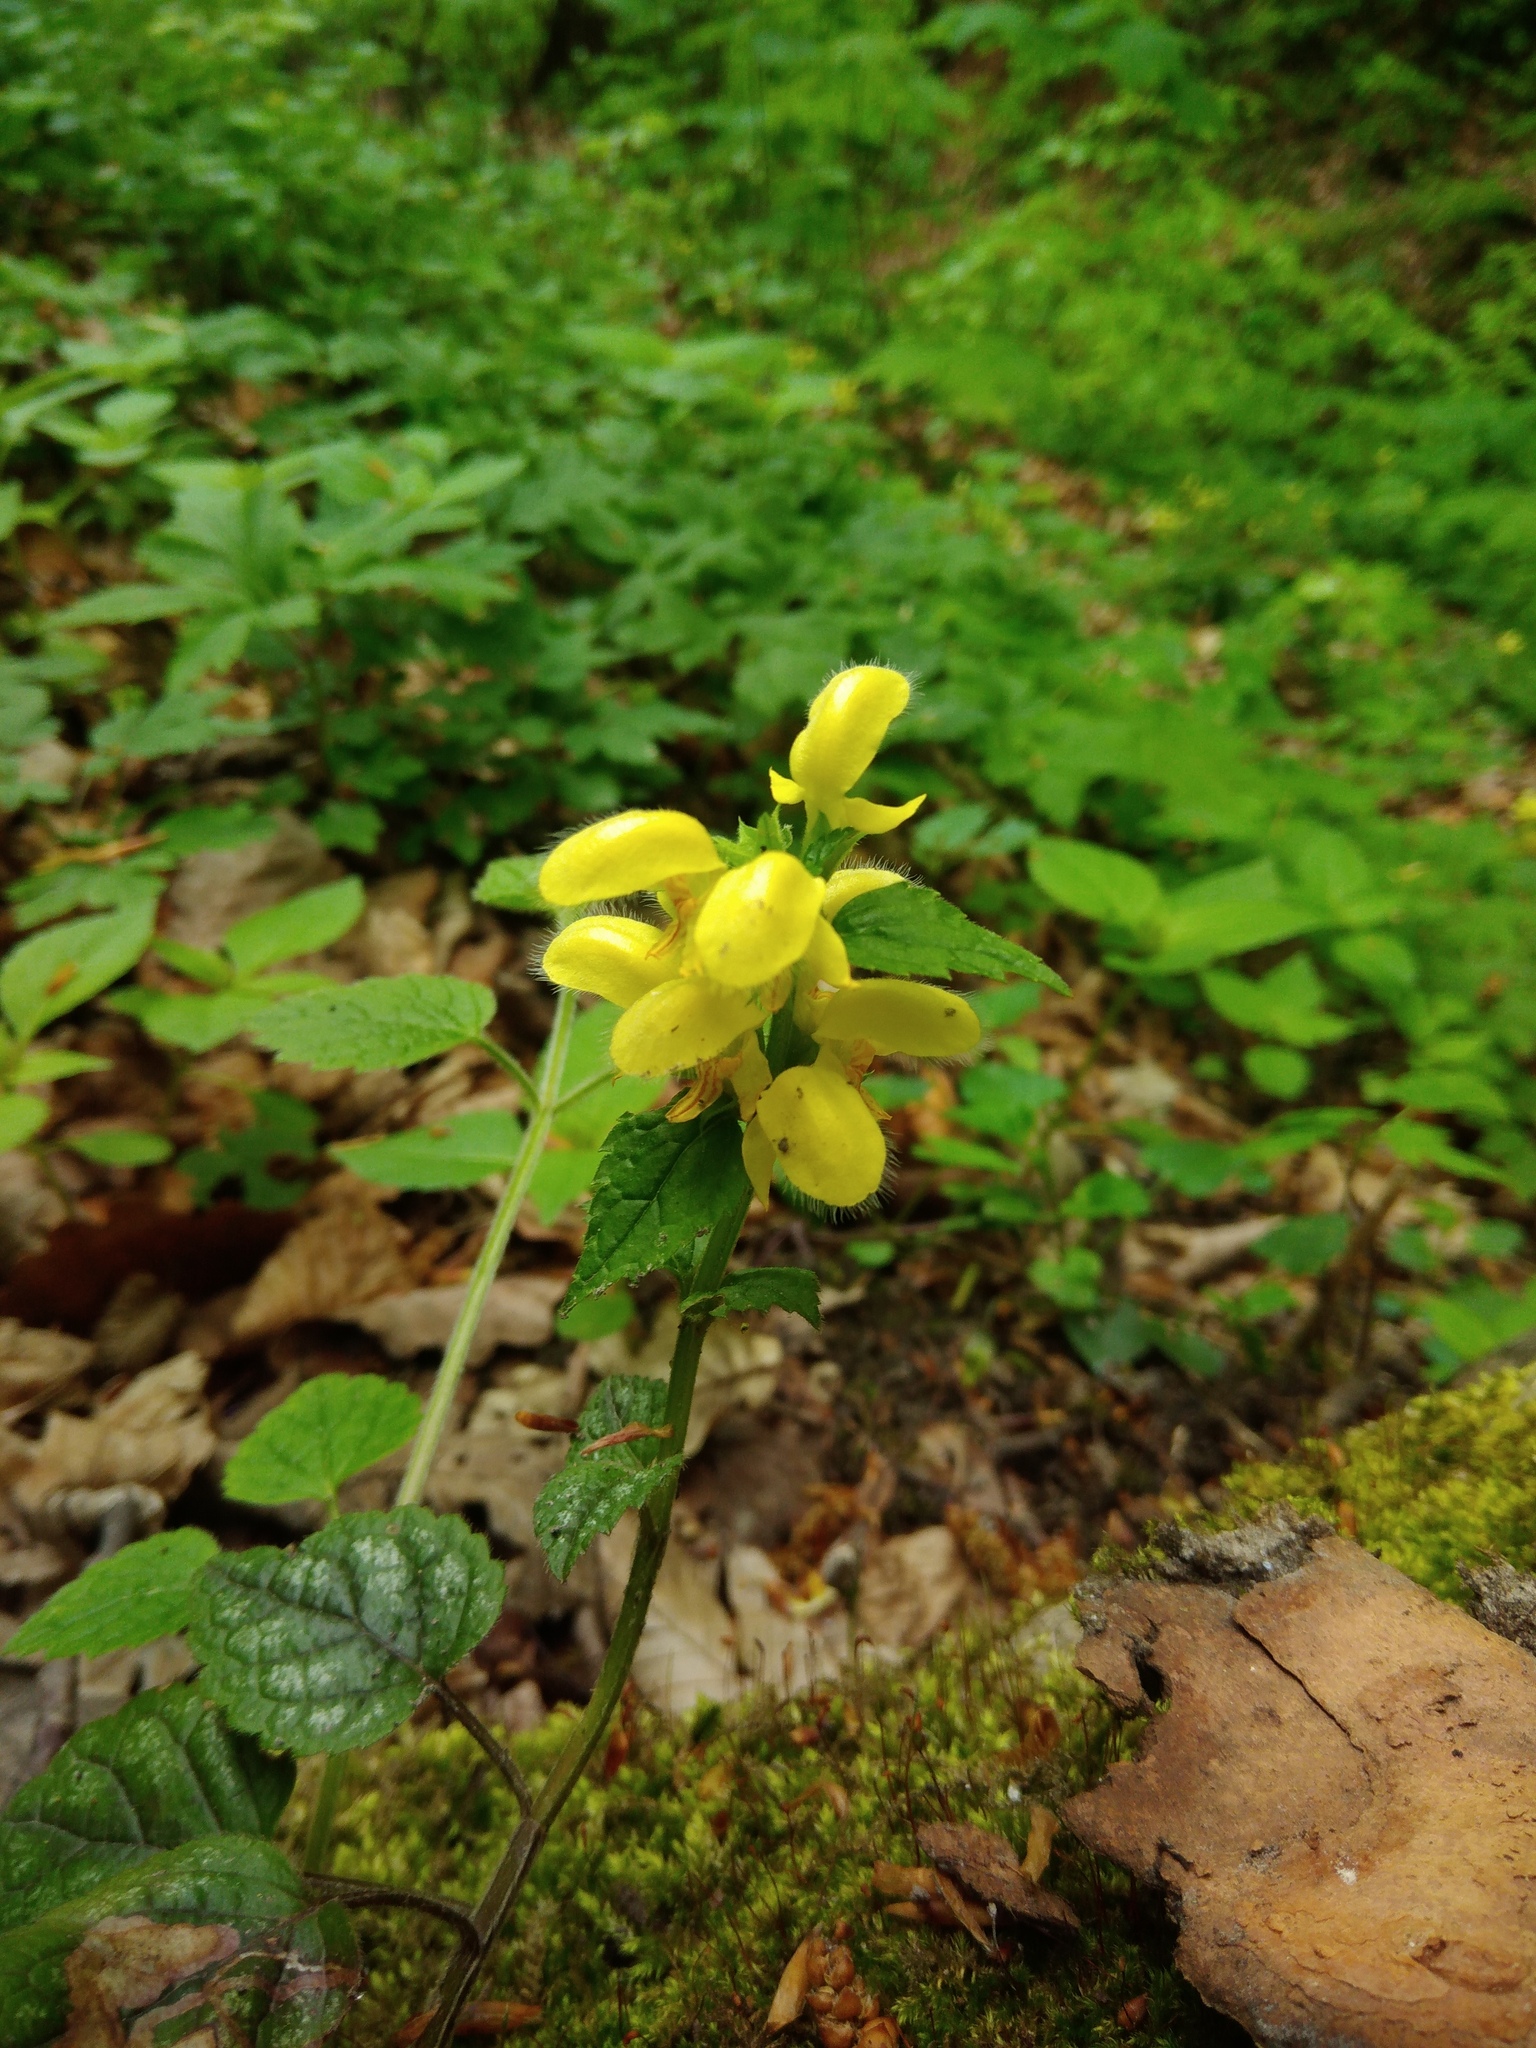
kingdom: Plantae
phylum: Tracheophyta
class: Magnoliopsida
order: Lamiales
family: Lamiaceae
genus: Lamium
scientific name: Lamium galeobdolon
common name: Yellow archangel
